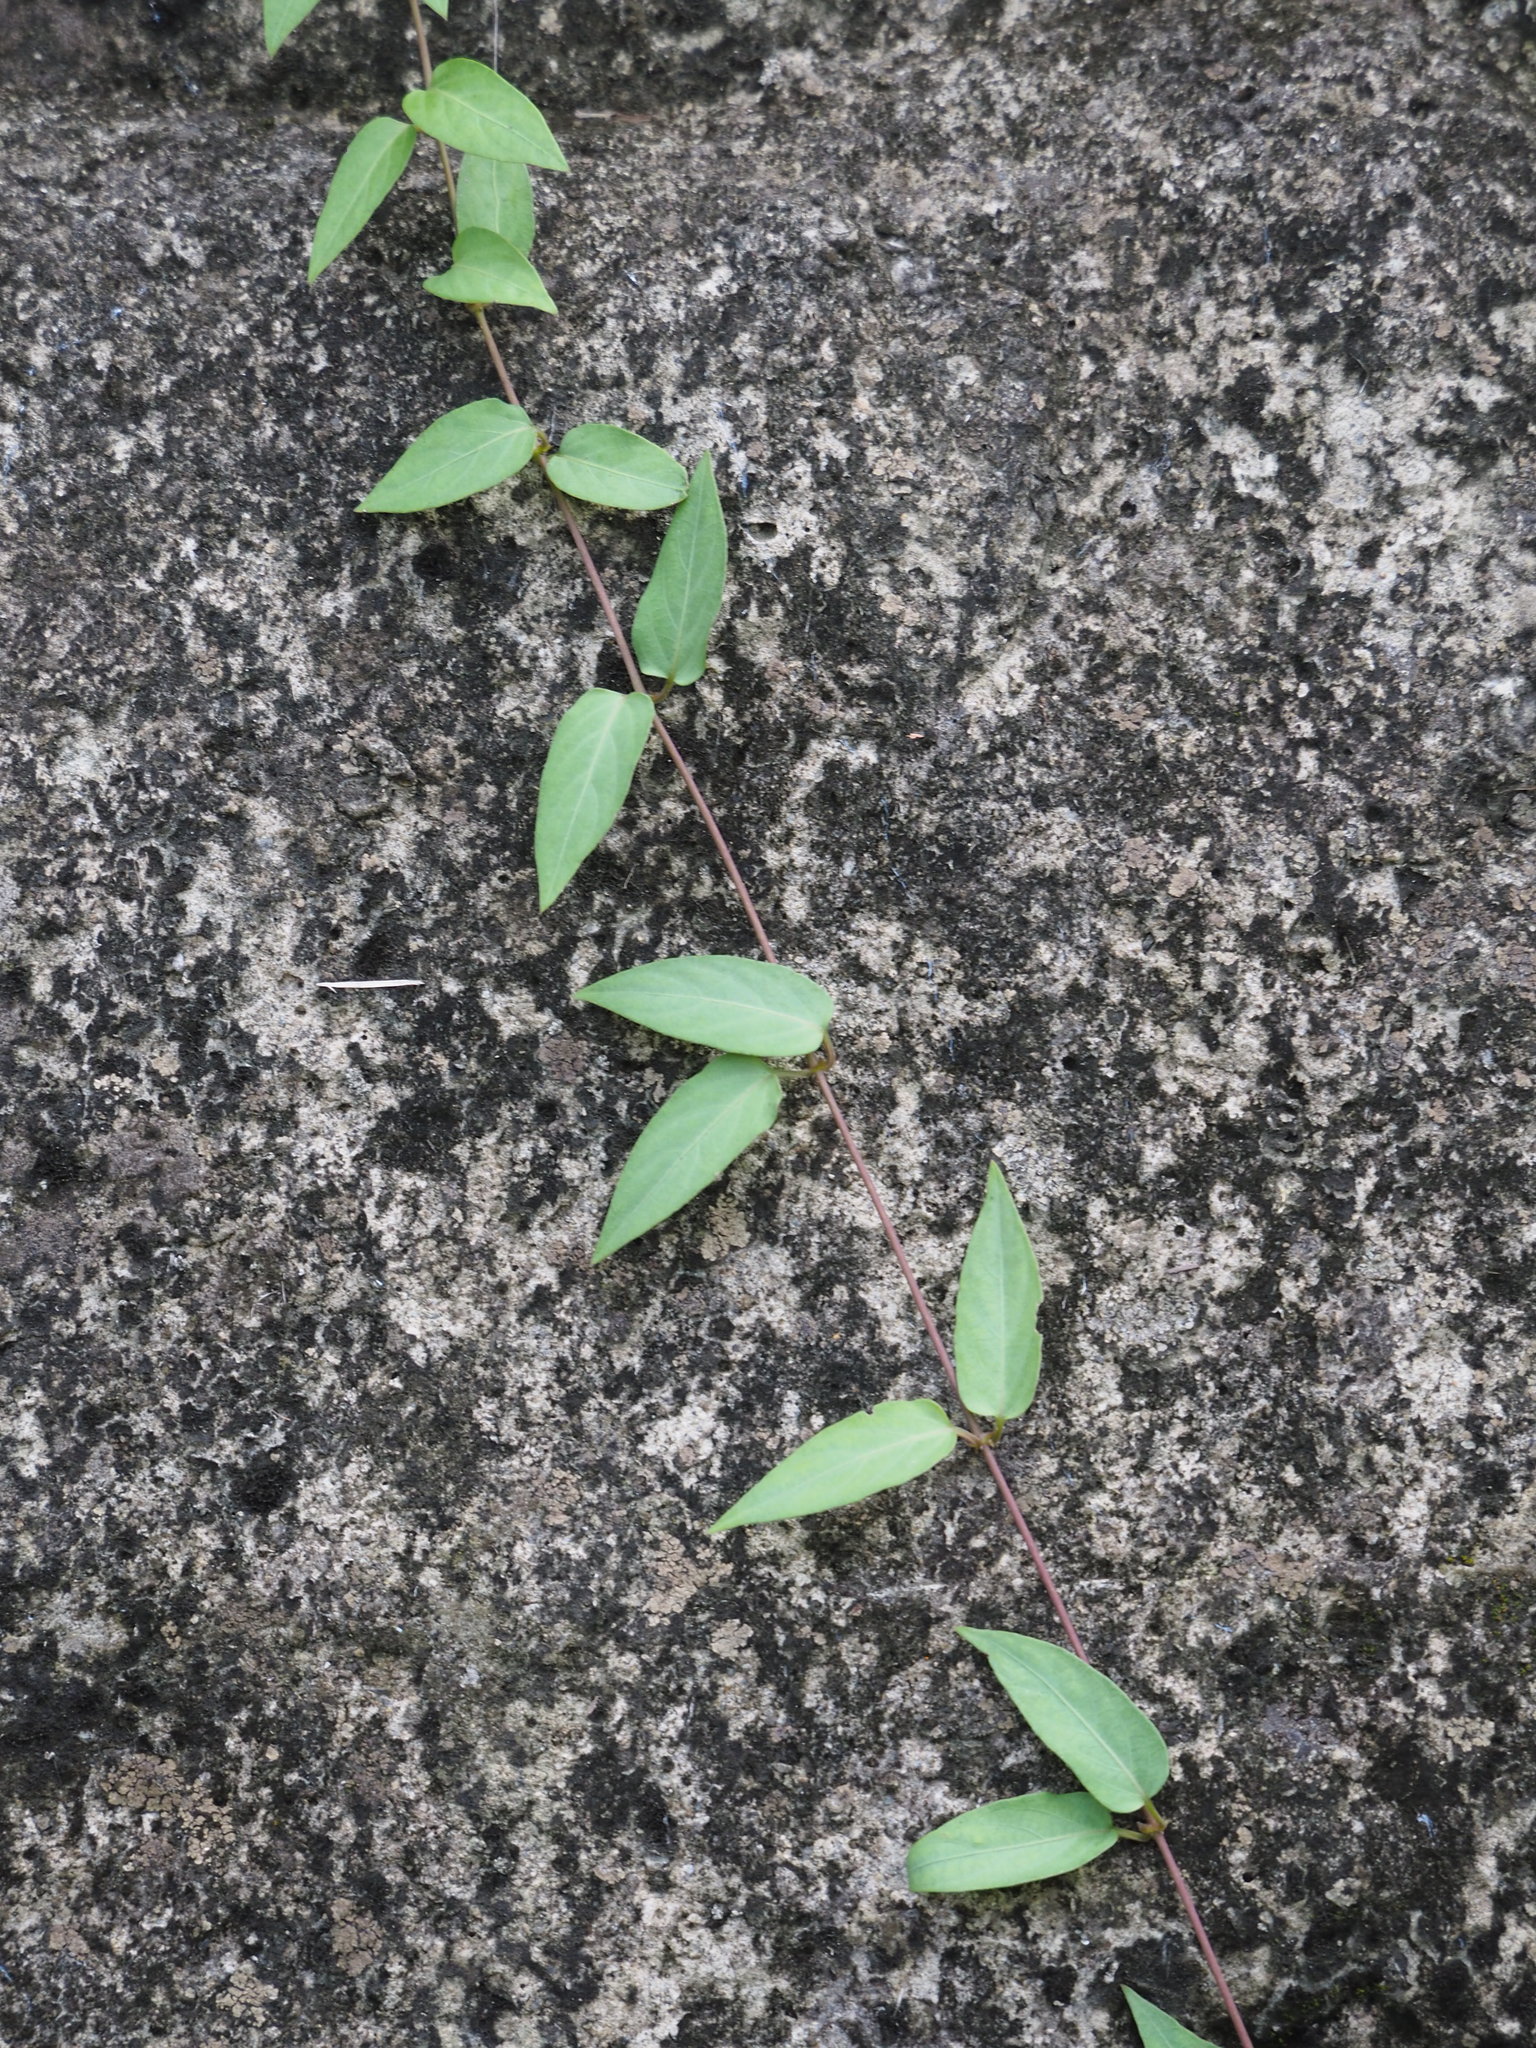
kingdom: Plantae
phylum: Tracheophyta
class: Magnoliopsida
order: Gentianales
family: Rubiaceae
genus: Paederia
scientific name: Paederia foetida
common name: Stinkvine
